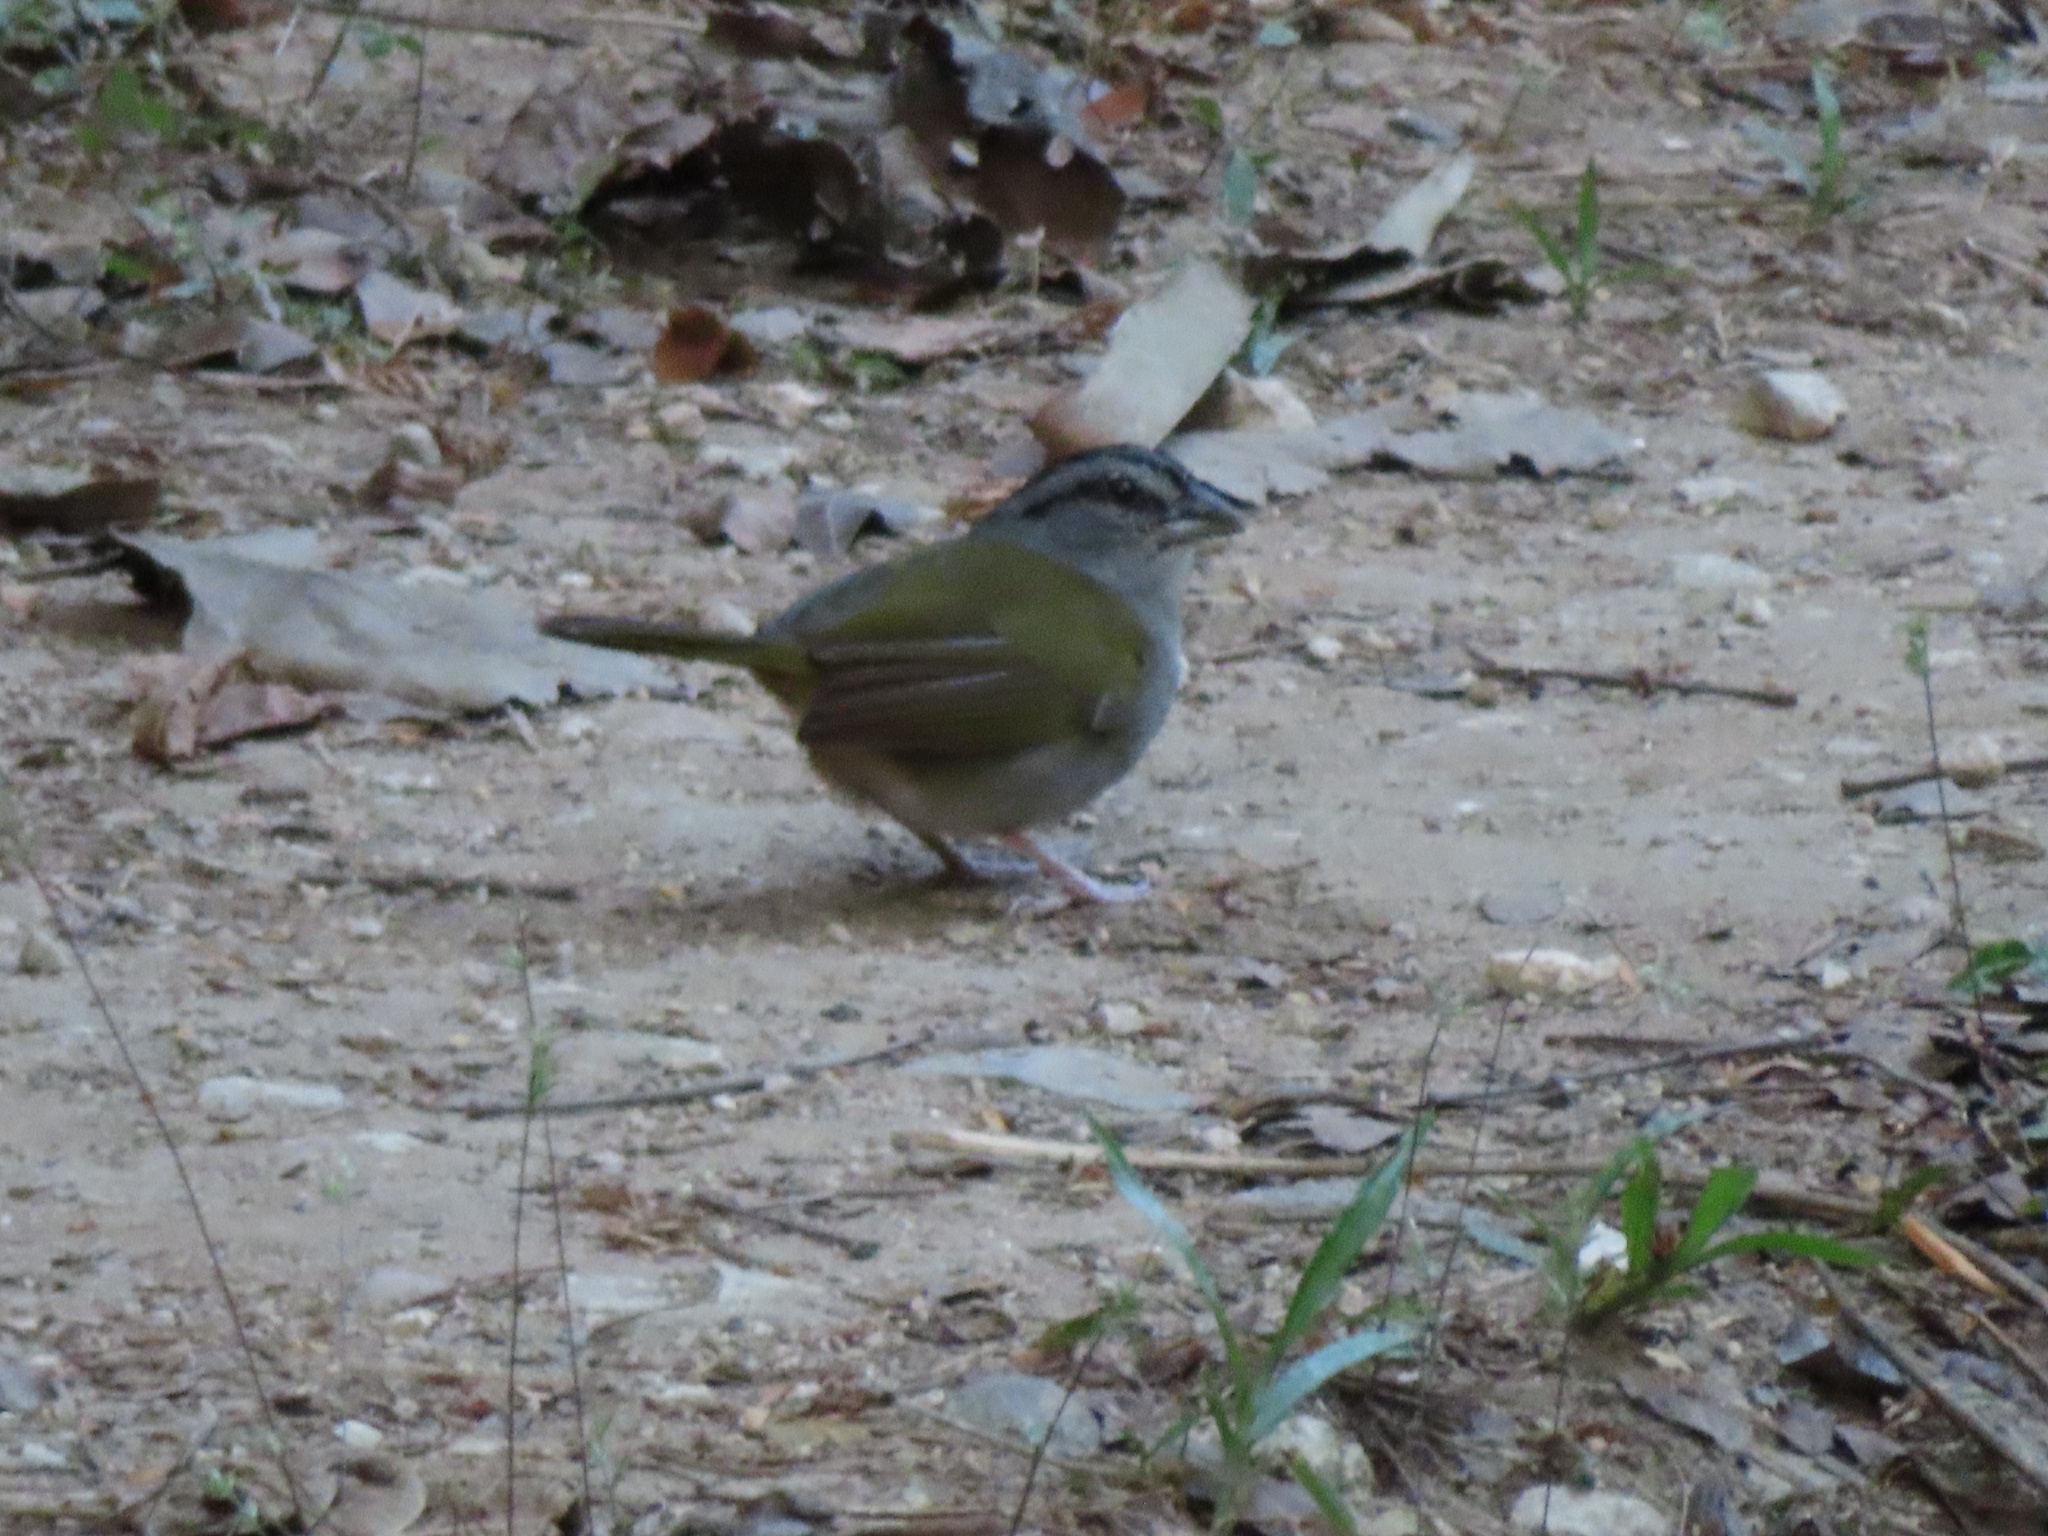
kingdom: Animalia
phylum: Chordata
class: Aves
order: Passeriformes
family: Passerellidae
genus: Arremonops
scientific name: Arremonops chloronotus
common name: Green-backed sparrow
